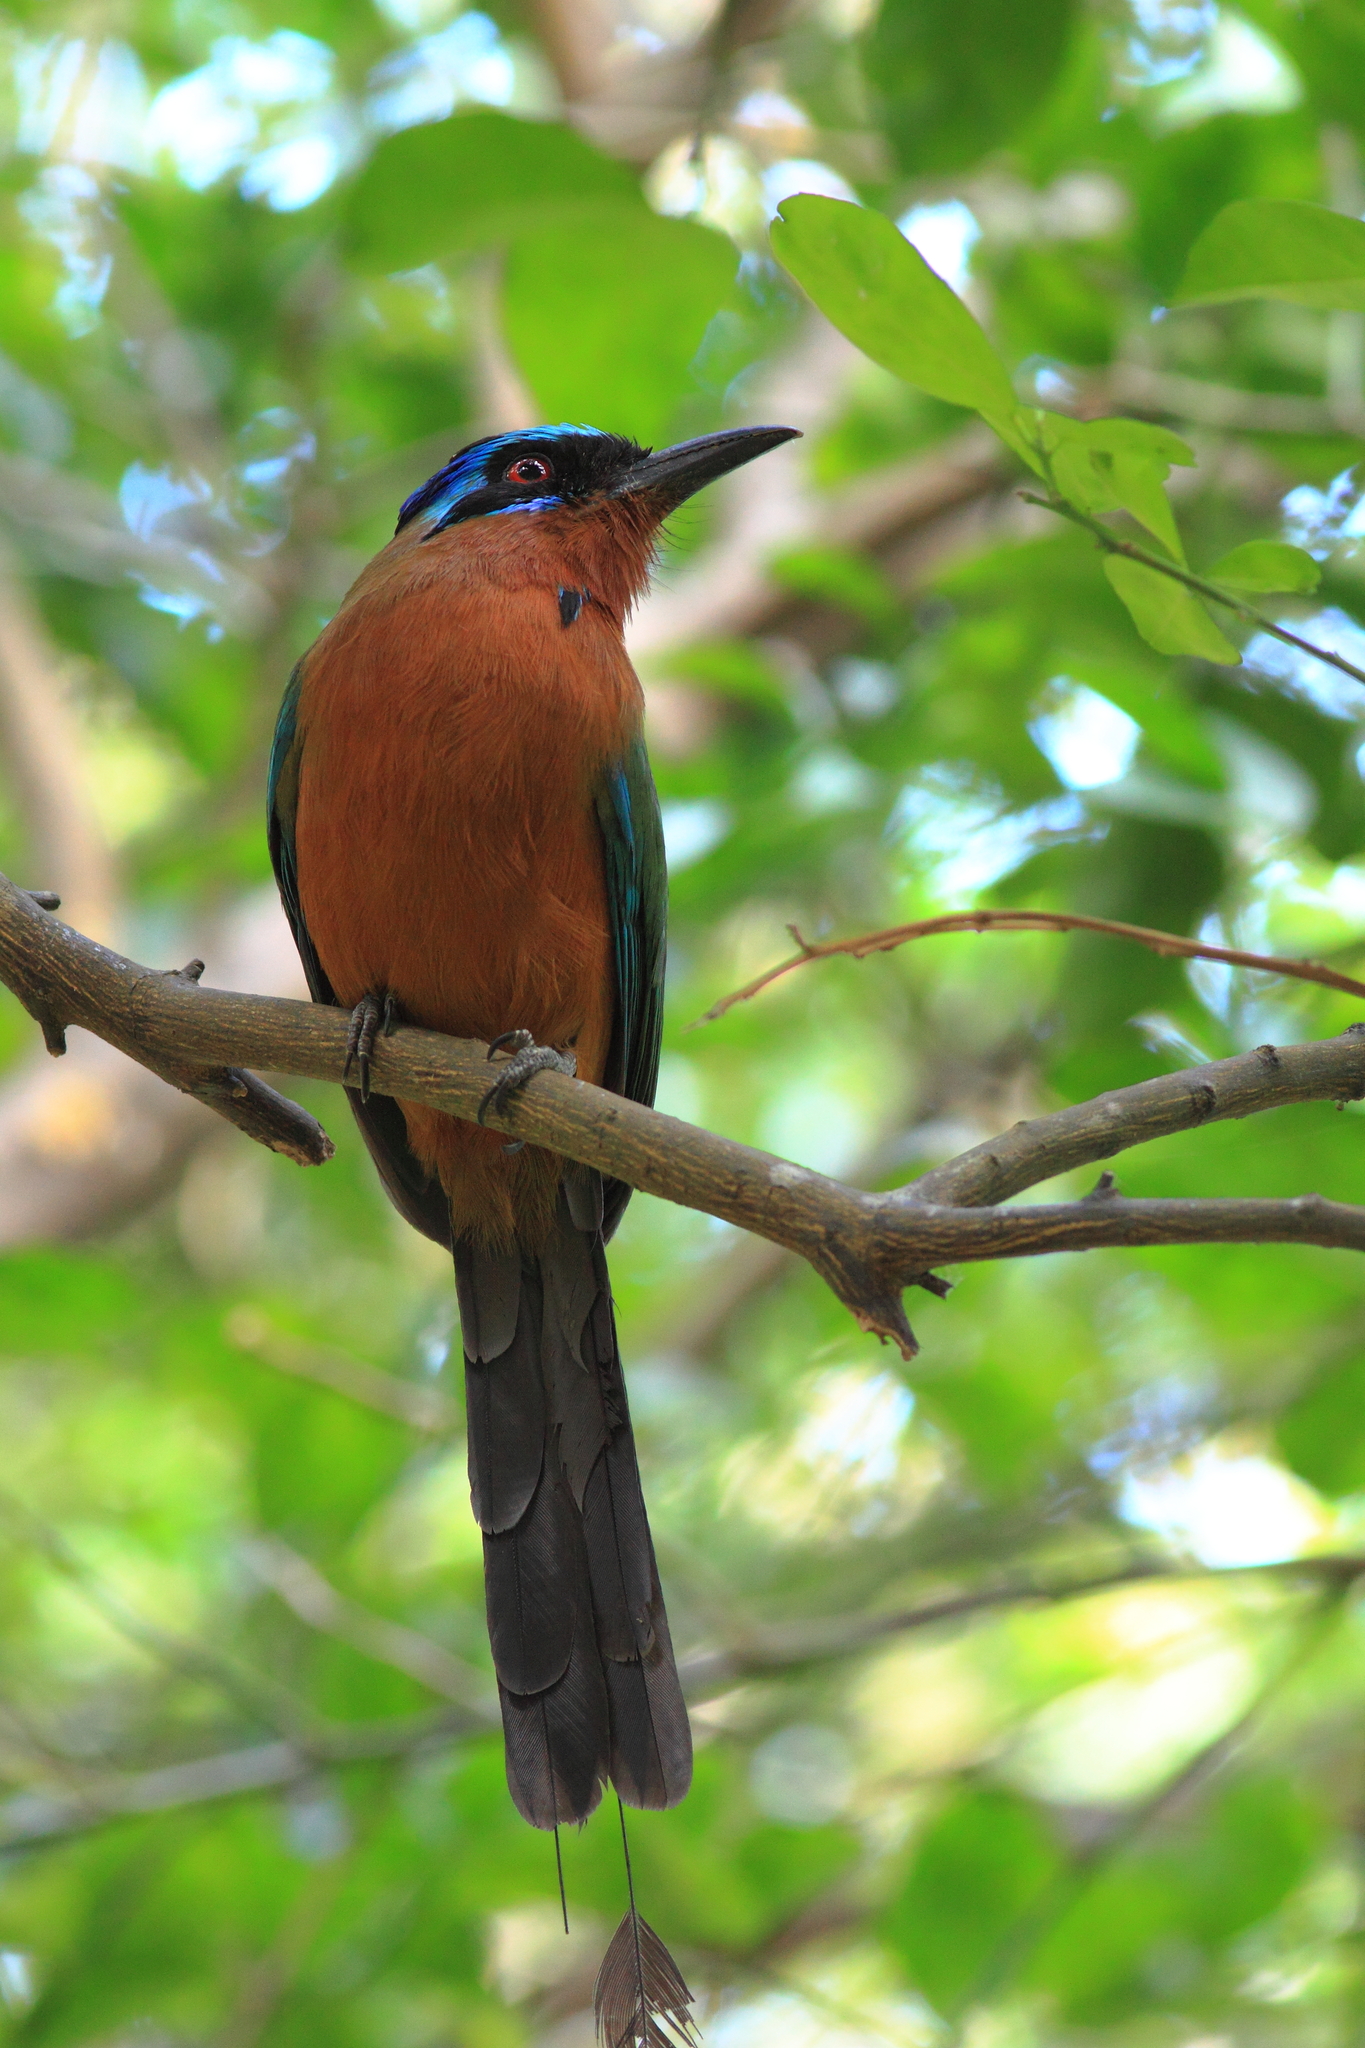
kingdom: Animalia
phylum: Chordata
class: Aves
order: Coraciiformes
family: Momotidae
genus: Momotus
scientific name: Momotus bahamensis
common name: Trinidad motmot
